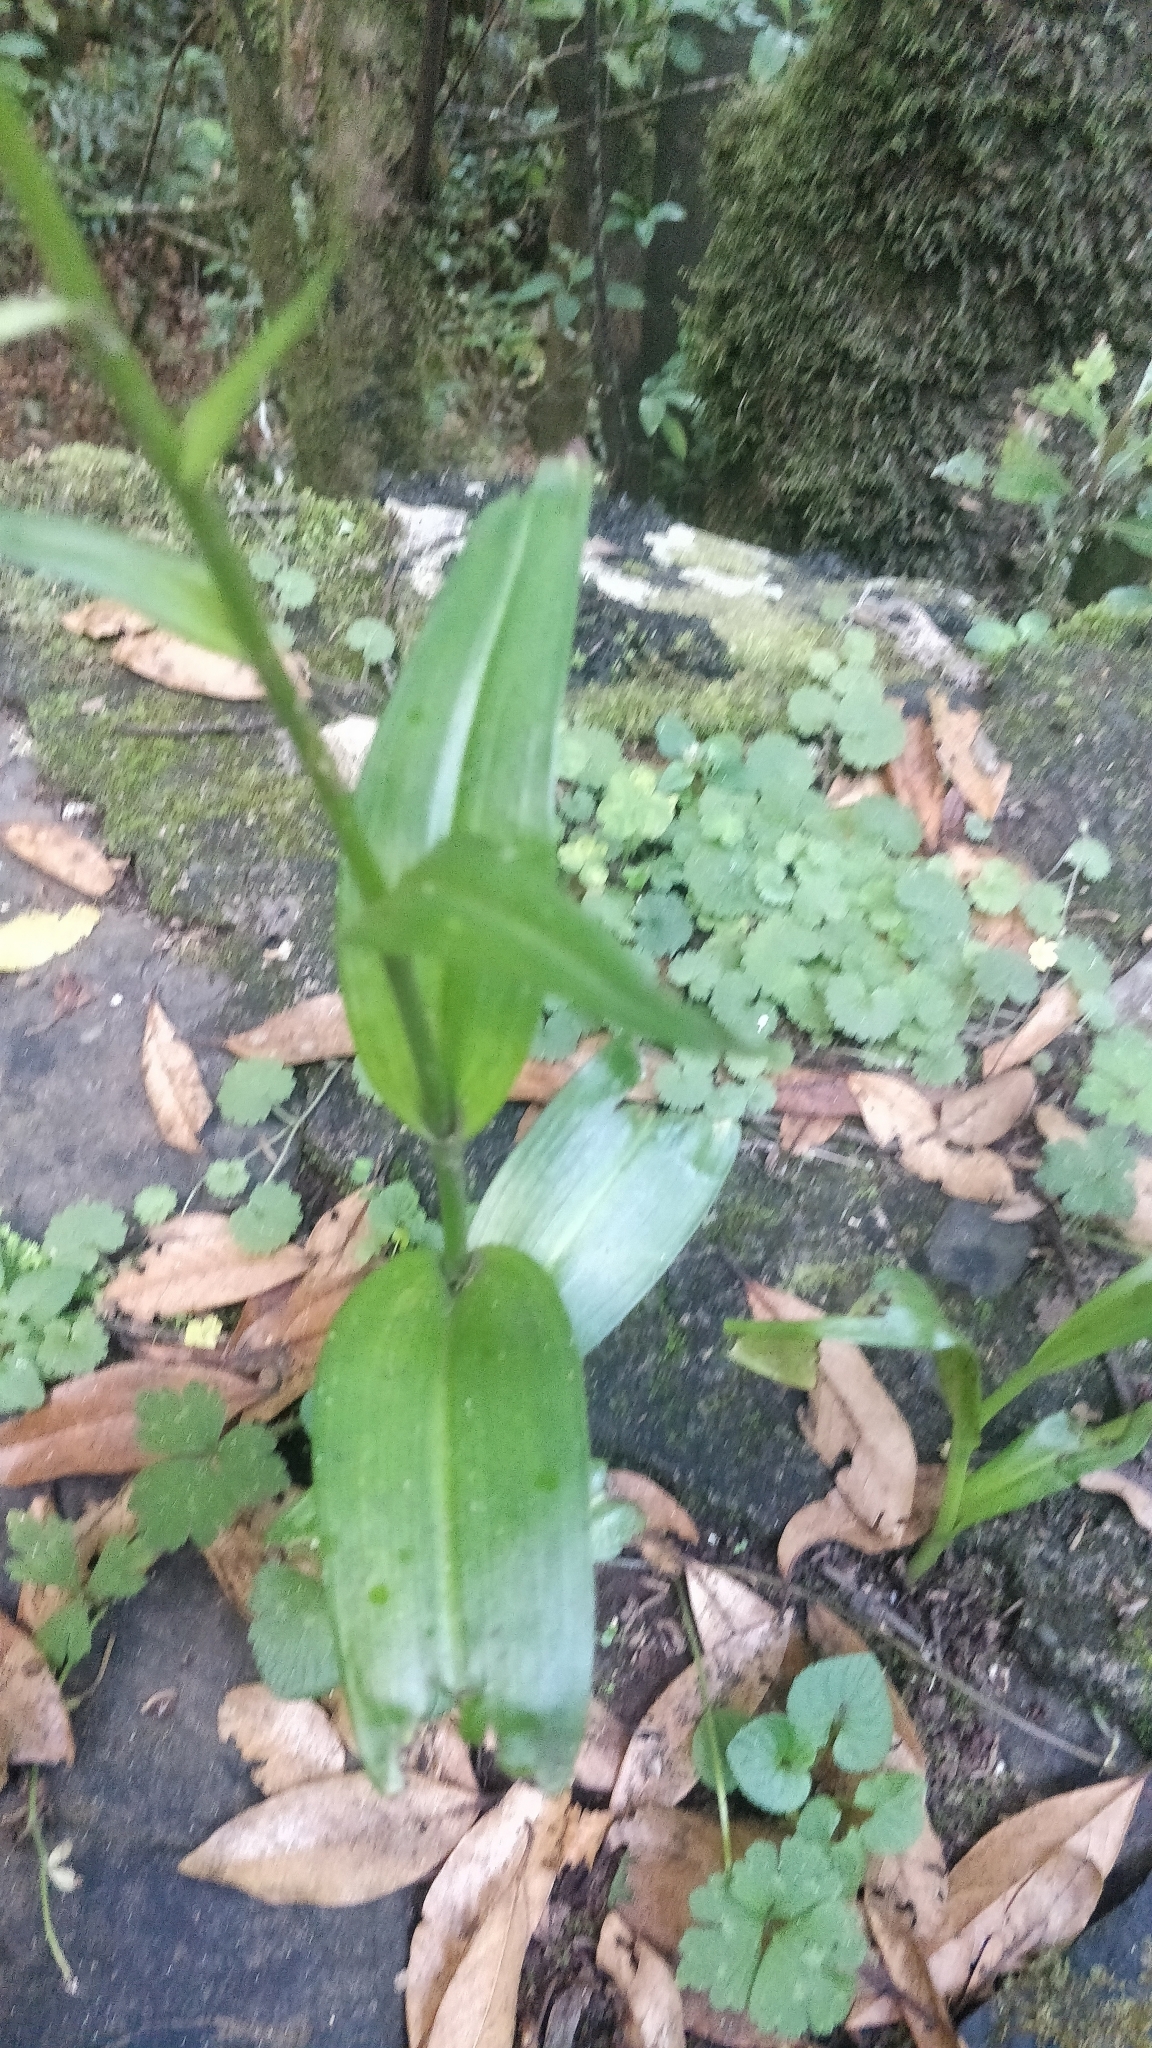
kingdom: Plantae
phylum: Tracheophyta
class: Liliopsida
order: Asparagales
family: Orchidaceae
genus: Dactylorhiza
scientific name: Dactylorhiza foliosa
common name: Richly-leaved dactylorhiza
